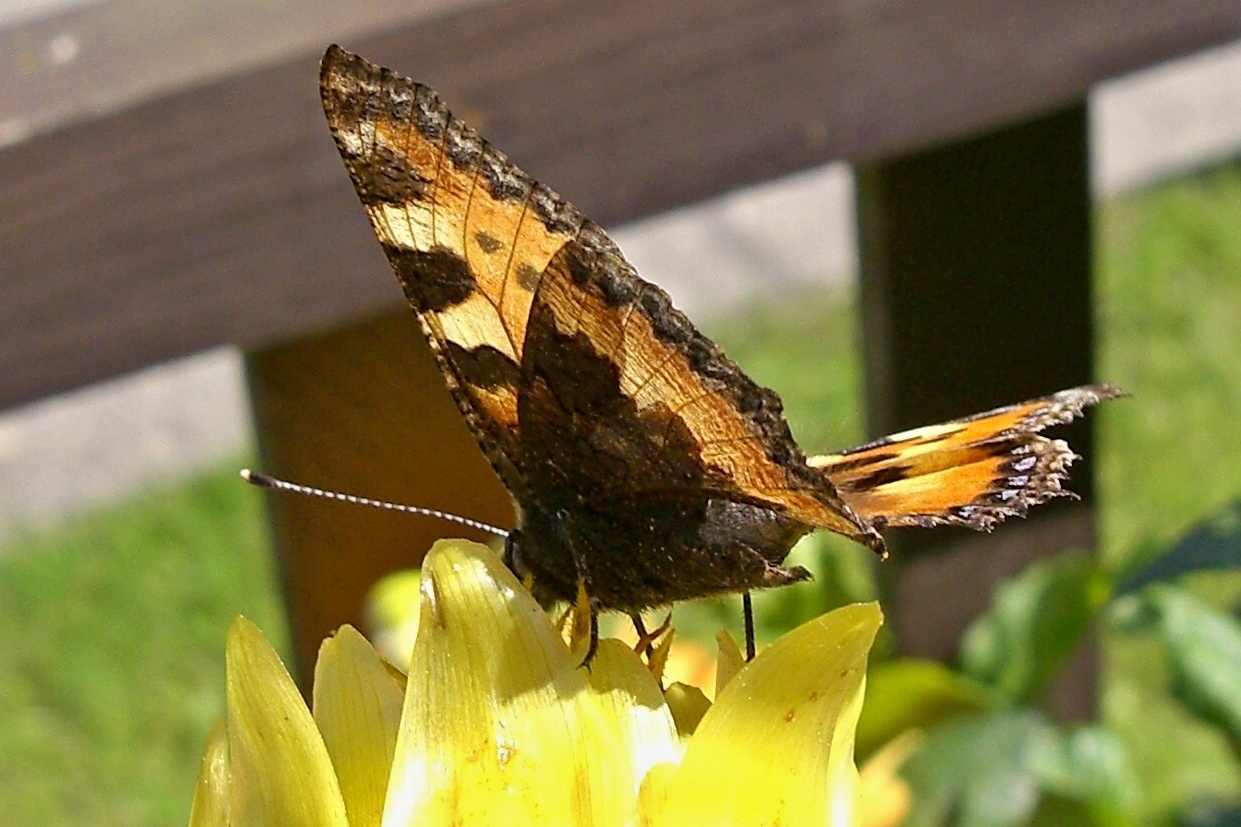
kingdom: Animalia
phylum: Arthropoda
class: Insecta
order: Lepidoptera
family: Nymphalidae
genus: Aglais
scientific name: Aglais urticae
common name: Small tortoiseshell
